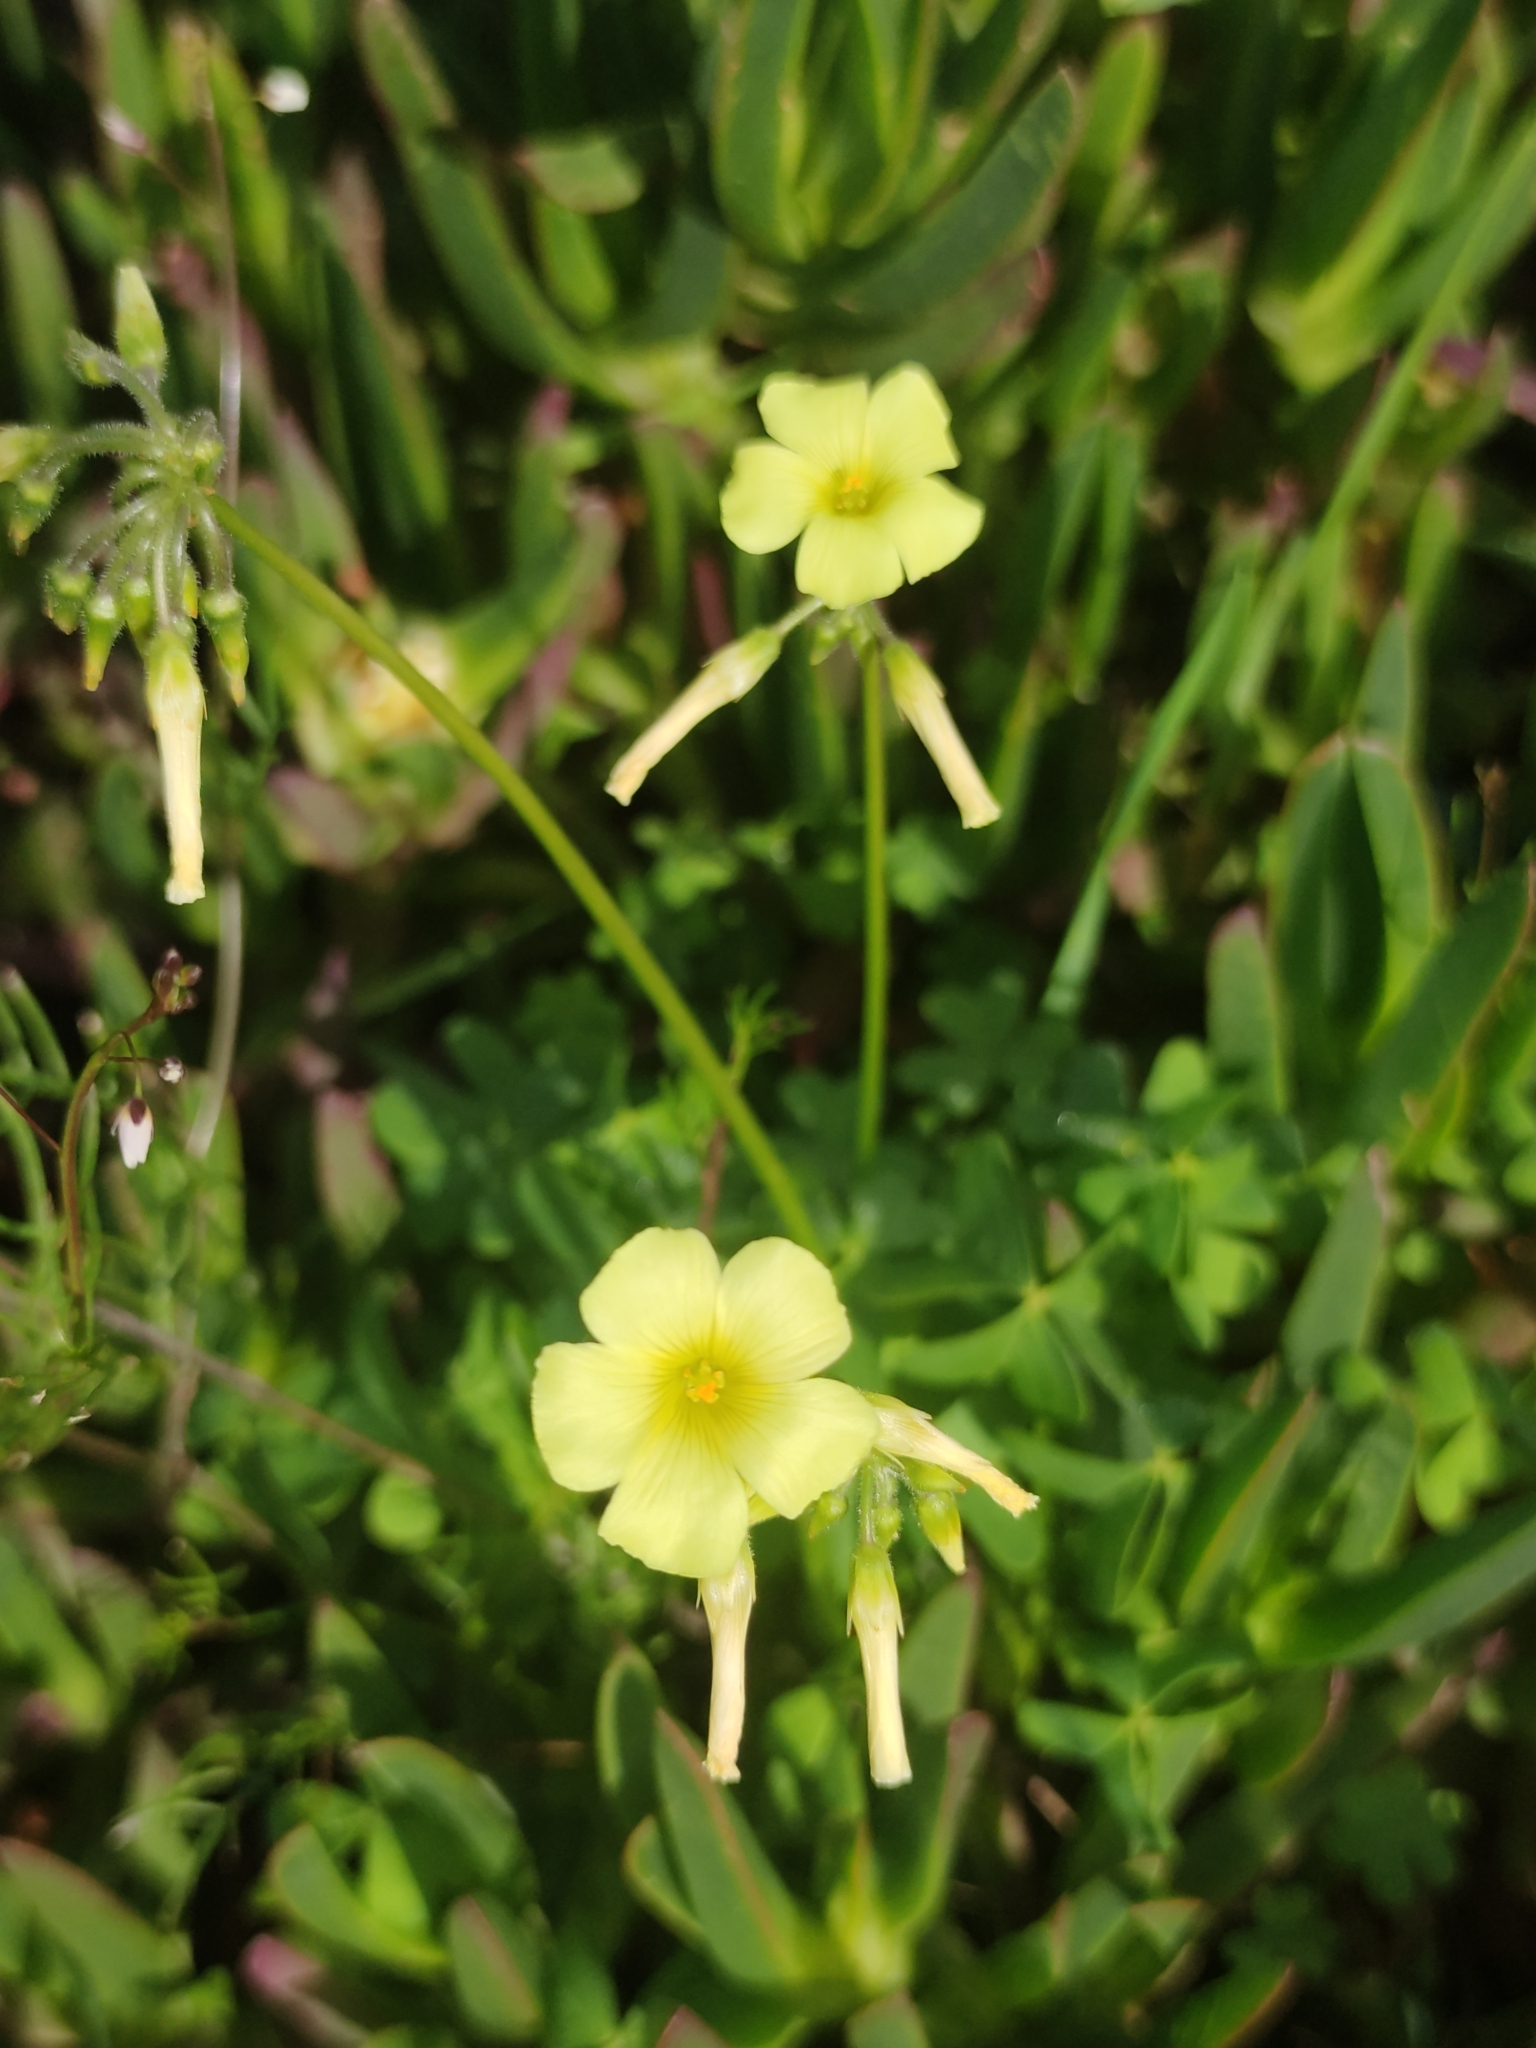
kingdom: Plantae
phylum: Tracheophyta
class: Magnoliopsida
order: Oxalidales
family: Oxalidaceae
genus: Oxalis
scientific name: Oxalis pes-caprae
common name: Bermuda-buttercup
